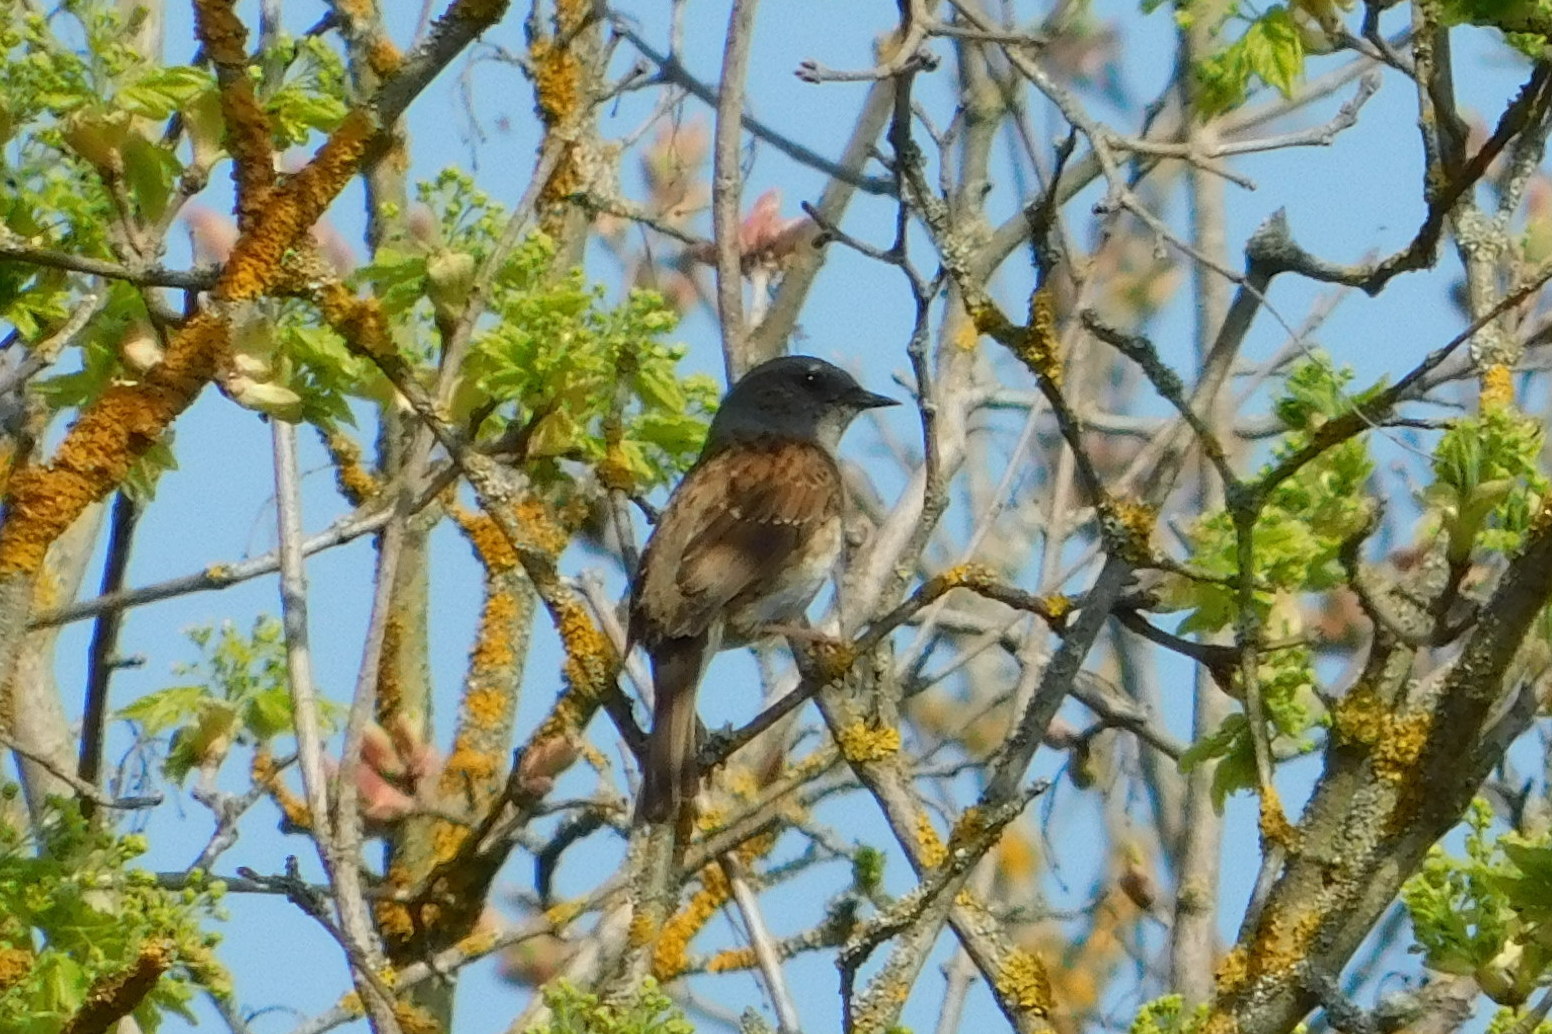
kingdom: Animalia
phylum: Chordata
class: Aves
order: Passeriformes
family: Prunellidae
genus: Prunella
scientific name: Prunella modularis
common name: Dunnock
